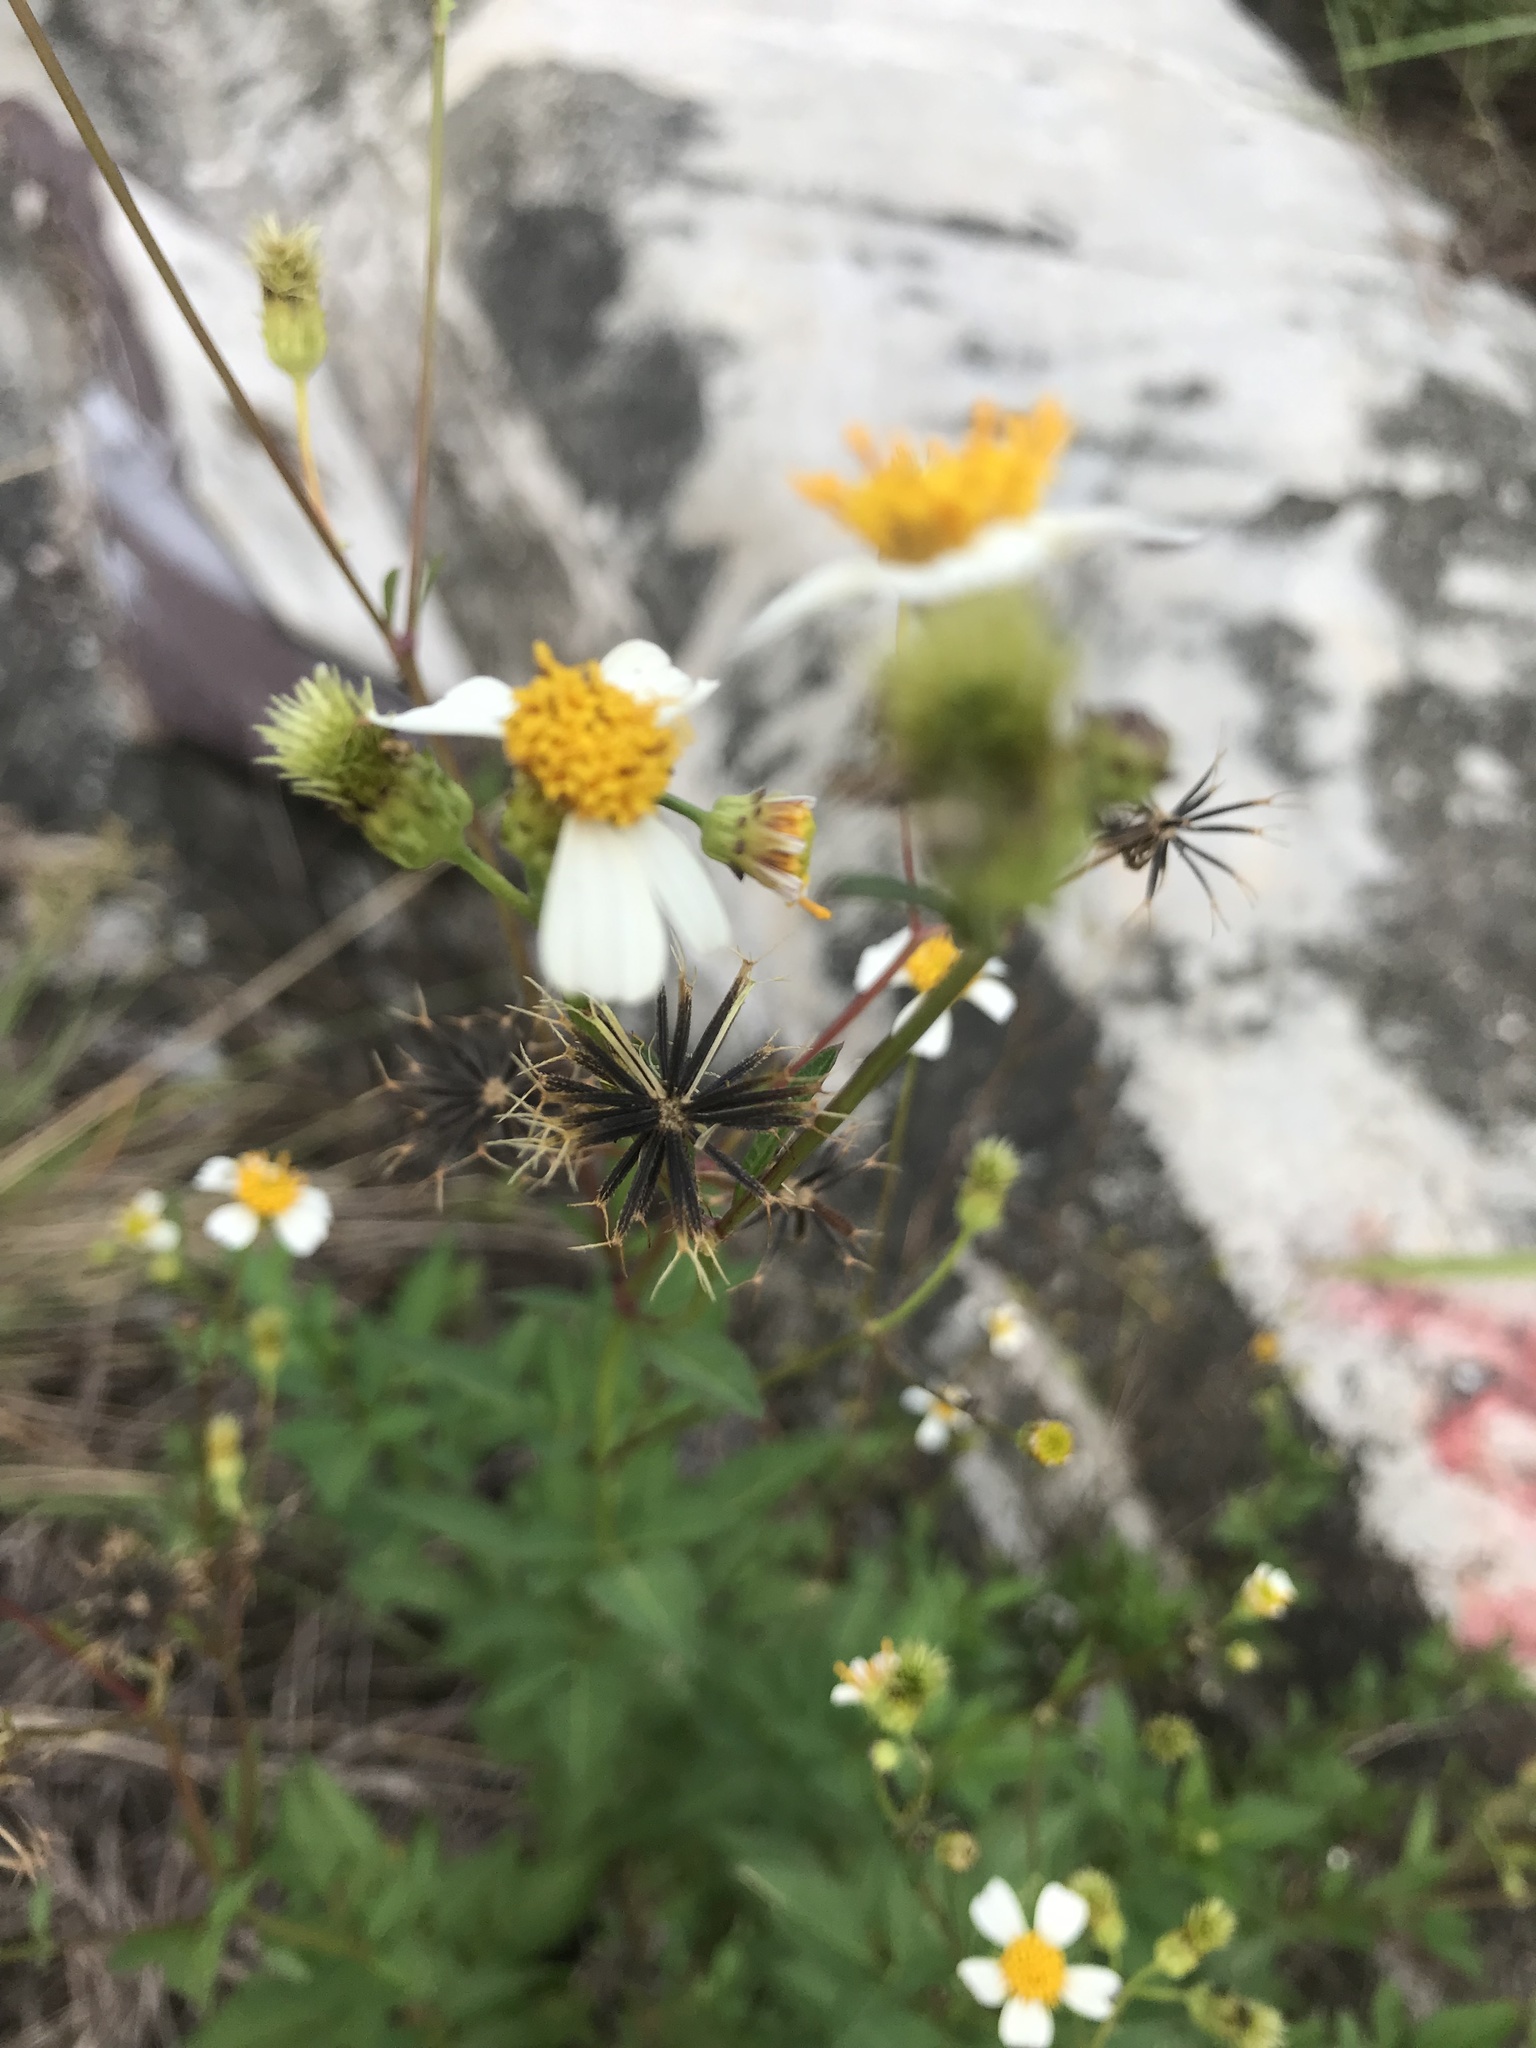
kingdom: Plantae
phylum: Tracheophyta
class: Magnoliopsida
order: Asterales
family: Asteraceae
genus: Bidens
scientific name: Bidens alba
